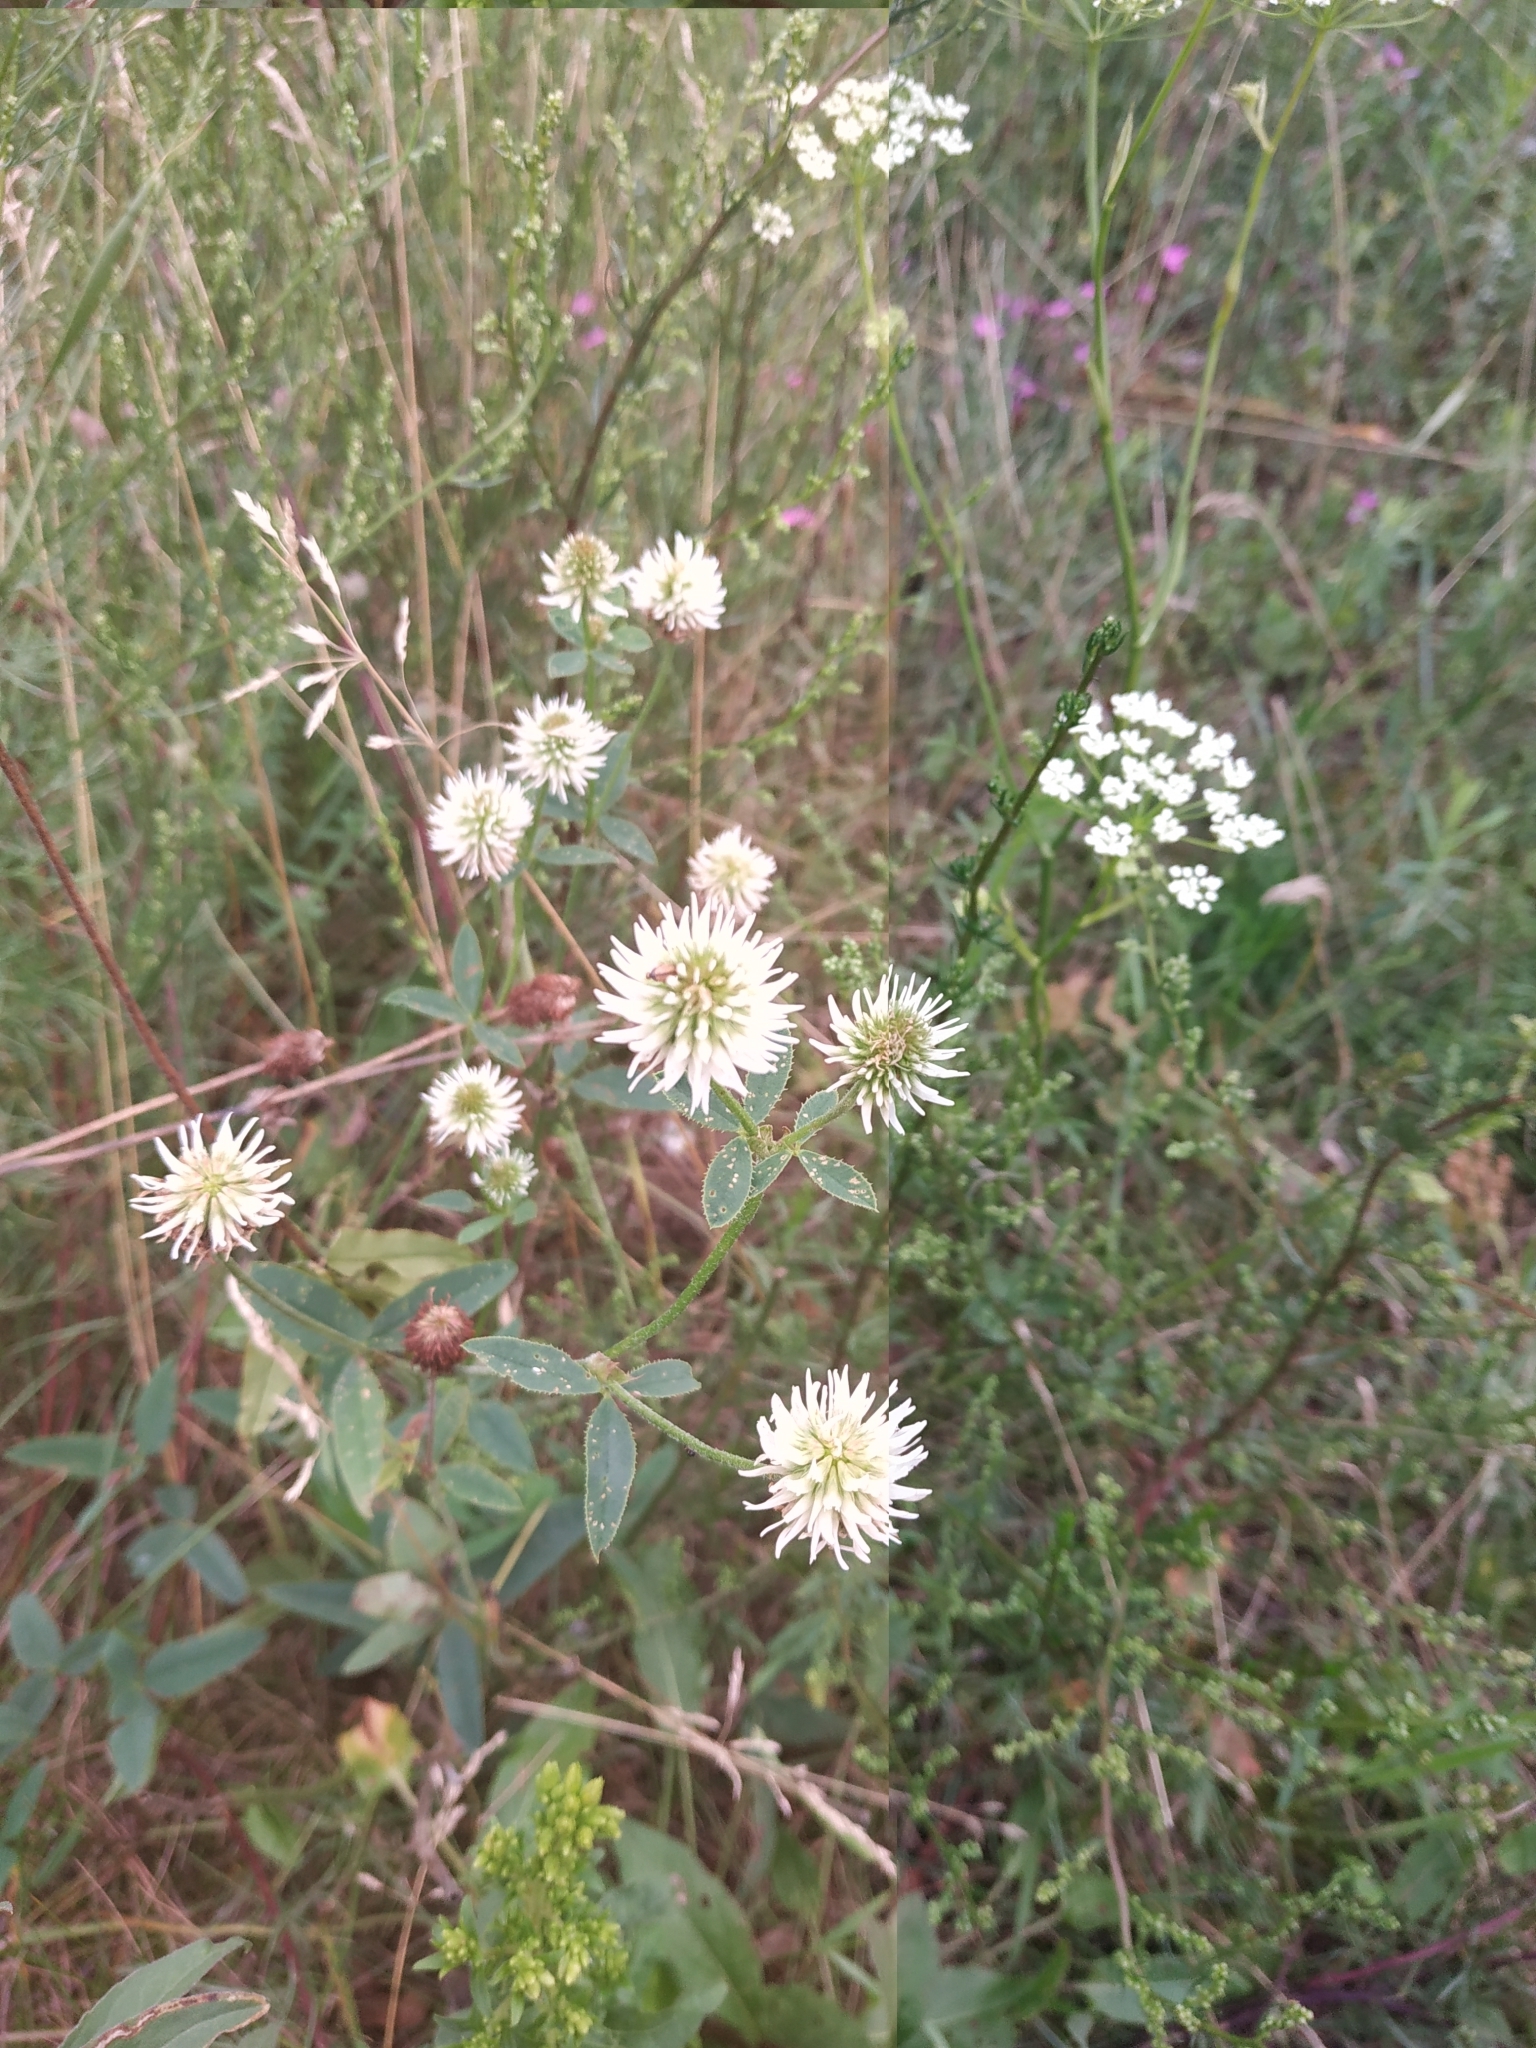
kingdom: Plantae
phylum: Tracheophyta
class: Magnoliopsida
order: Fabales
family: Fabaceae
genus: Trifolium
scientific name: Trifolium montanum
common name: Mountain clover
